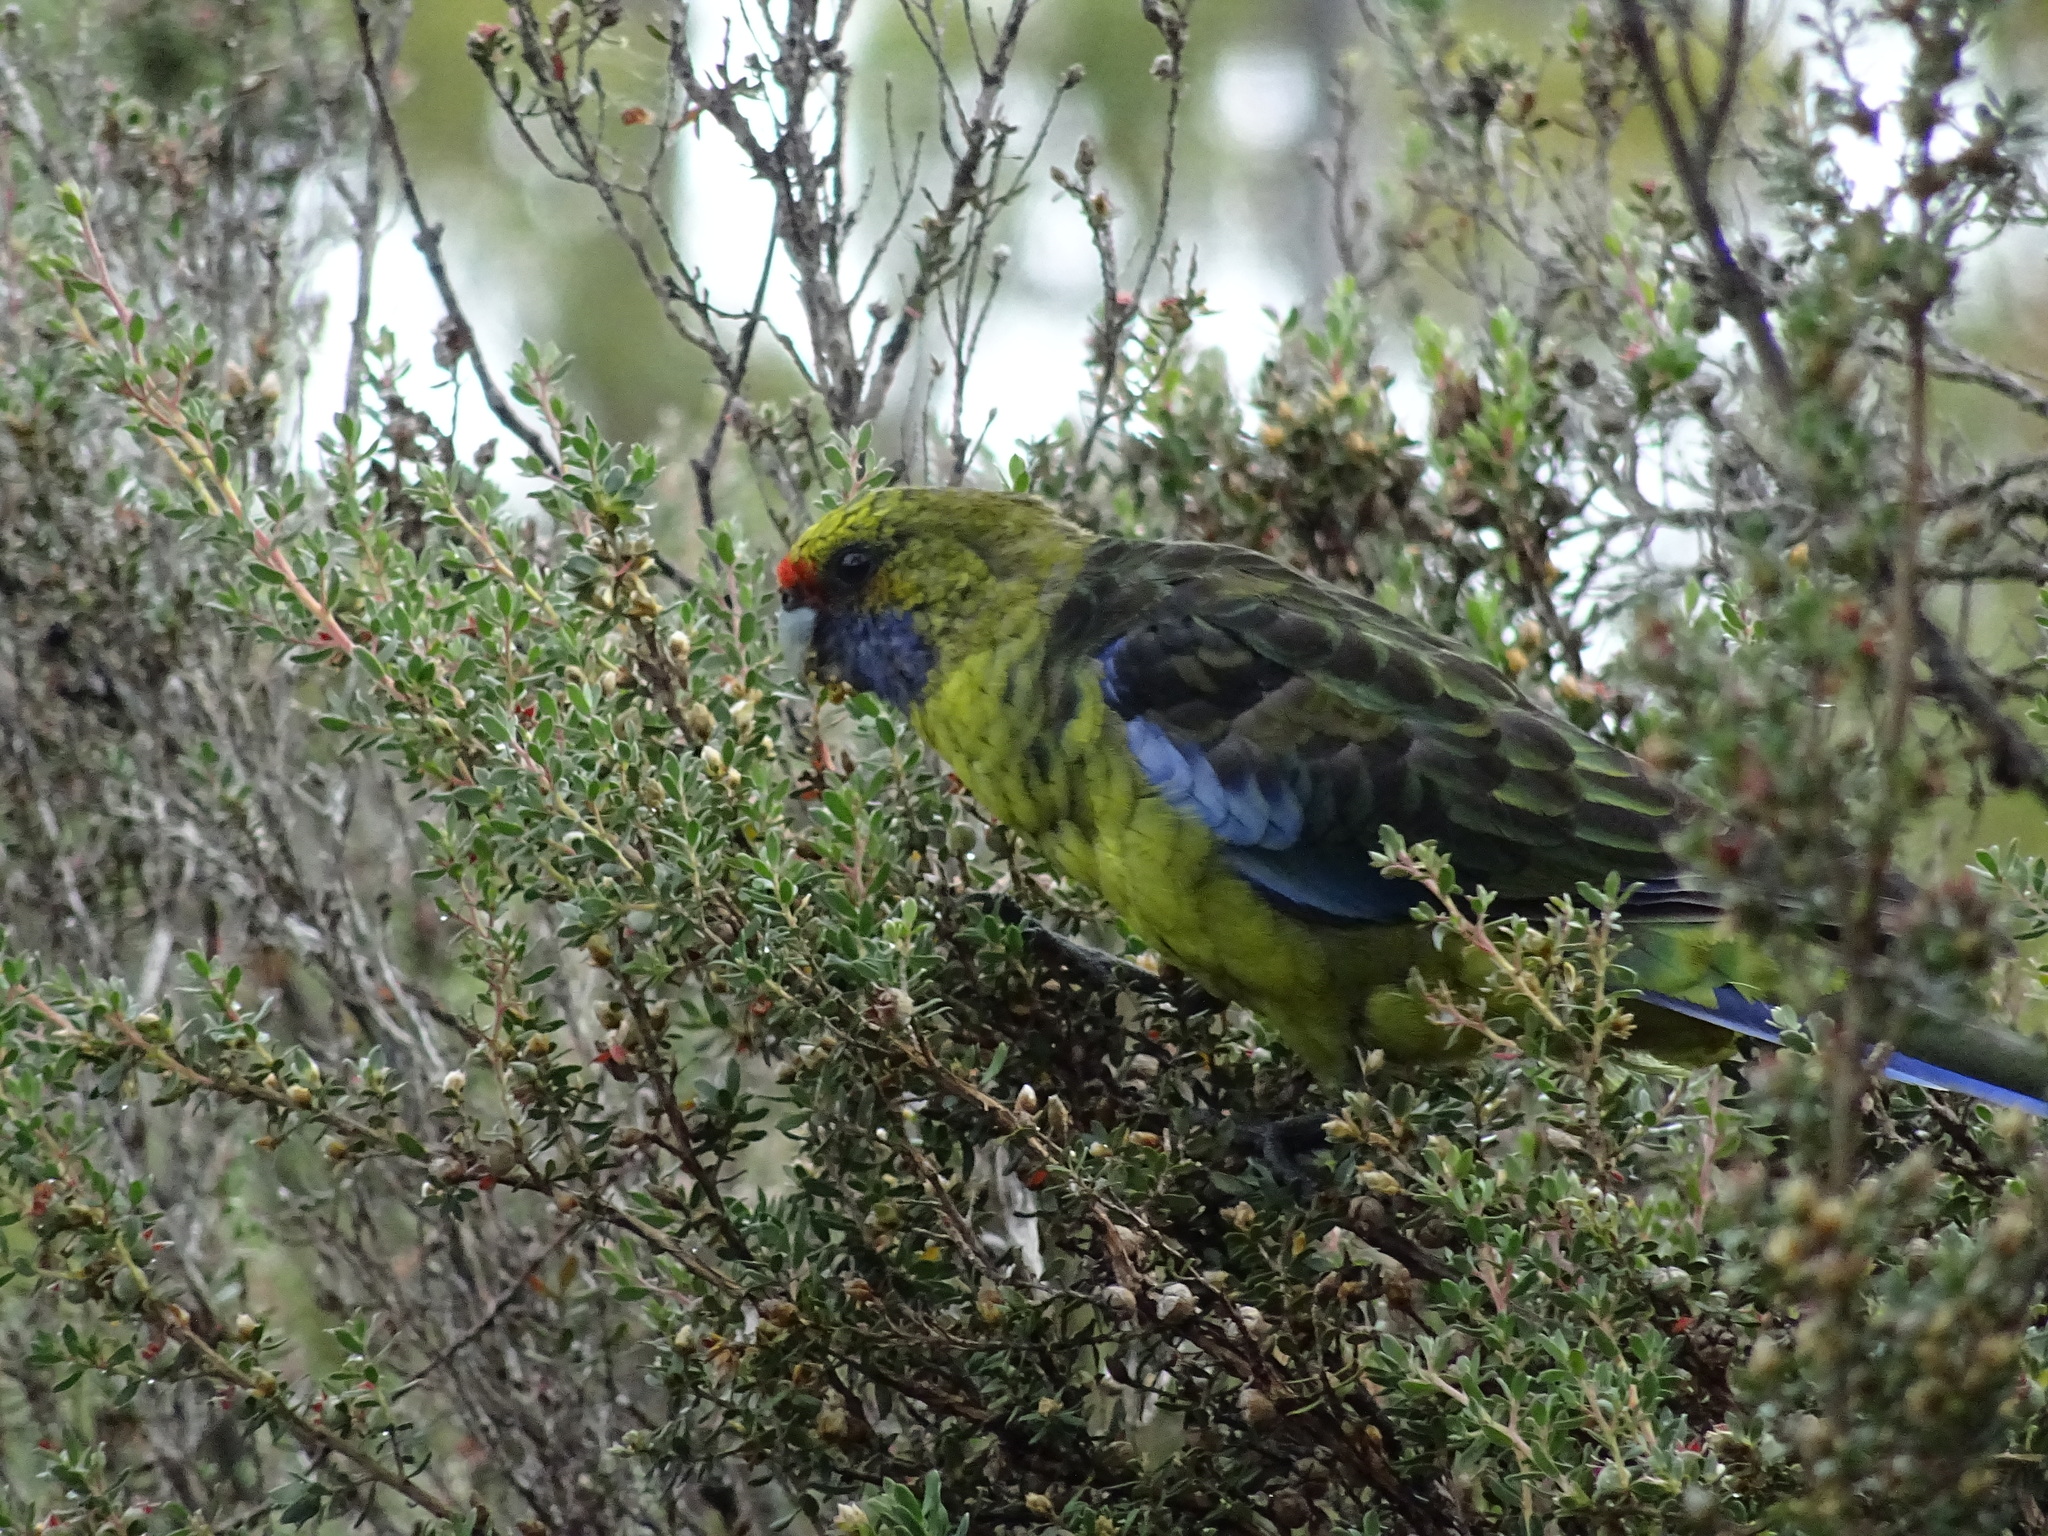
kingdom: Animalia
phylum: Chordata
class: Aves
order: Psittaciformes
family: Psittacidae
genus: Platycercus
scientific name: Platycercus caledonicus
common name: Green rosella
